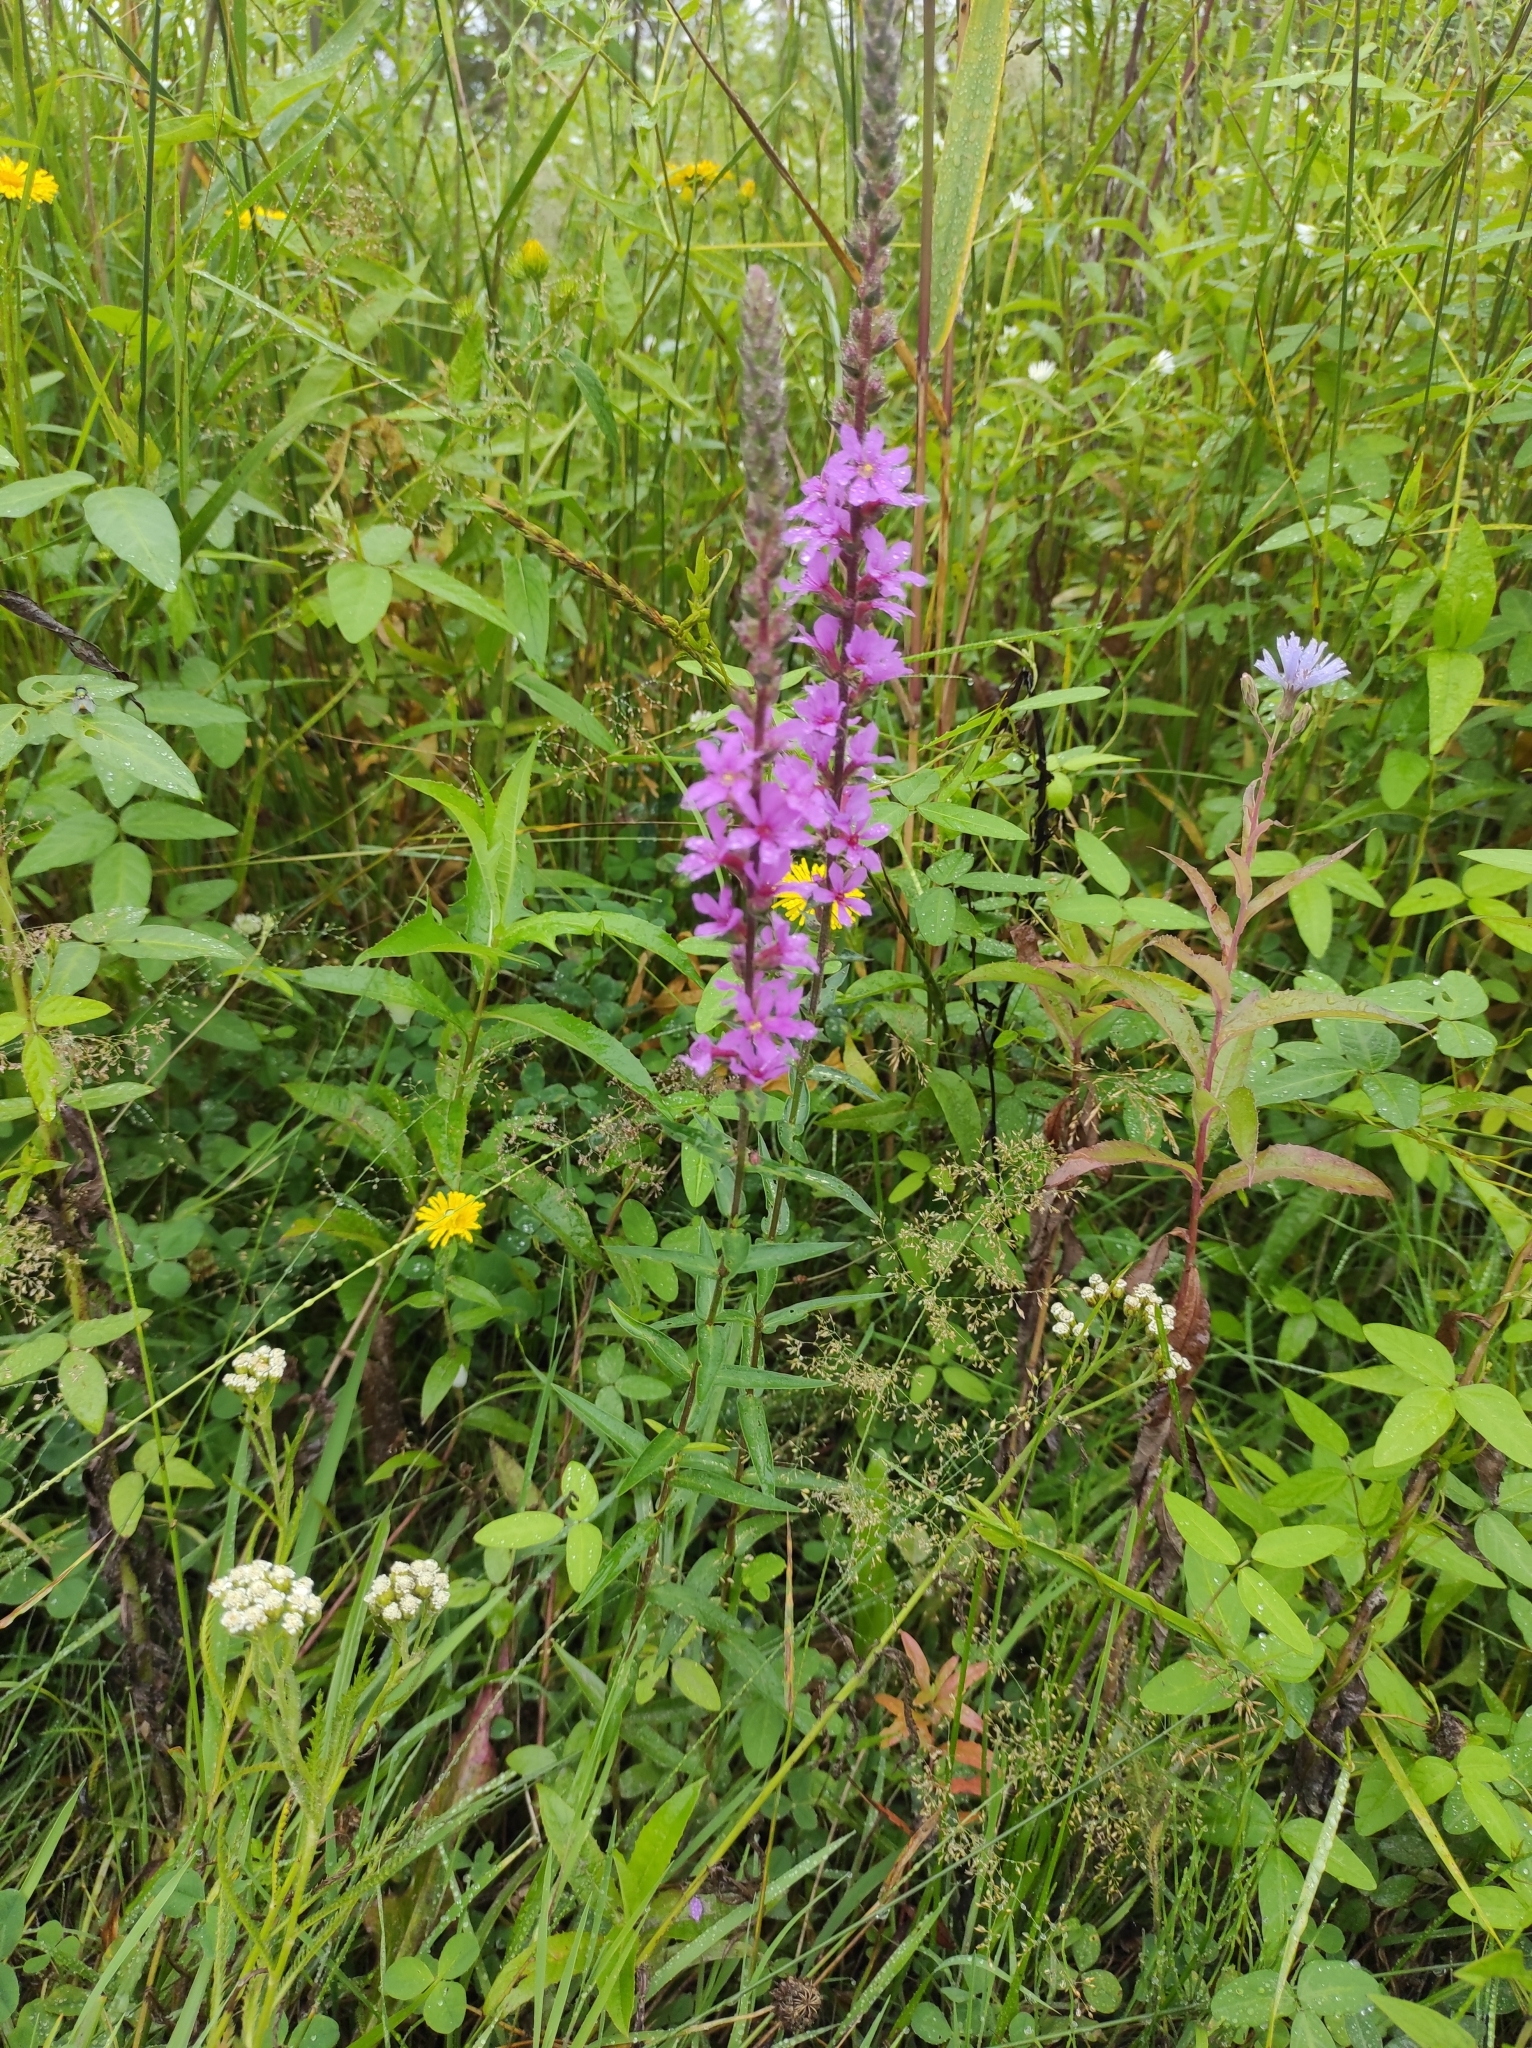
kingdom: Plantae
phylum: Tracheophyta
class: Magnoliopsida
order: Myrtales
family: Lythraceae
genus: Lythrum
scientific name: Lythrum salicaria
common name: Purple loosestrife
